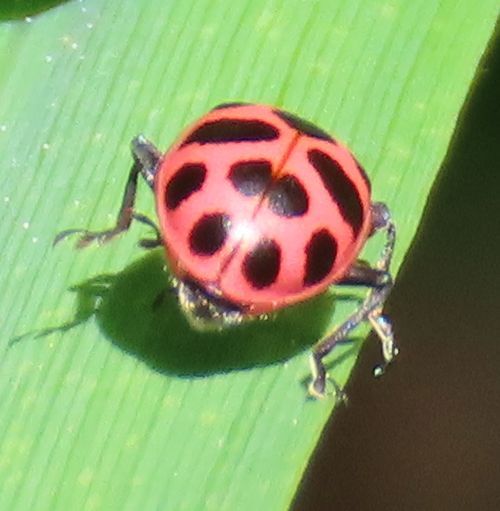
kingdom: Animalia
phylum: Arthropoda
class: Insecta
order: Coleoptera
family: Coccinellidae
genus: Coleomegilla
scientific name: Coleomegilla maculata
